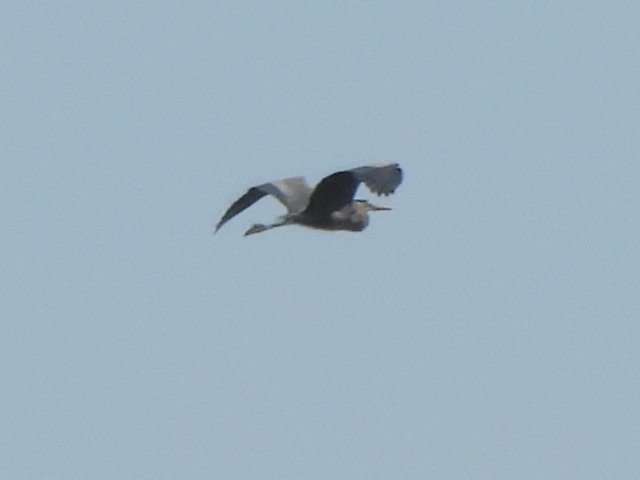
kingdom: Animalia
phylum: Chordata
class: Aves
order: Pelecaniformes
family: Ardeidae
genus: Ardea
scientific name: Ardea herodias
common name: Great blue heron
